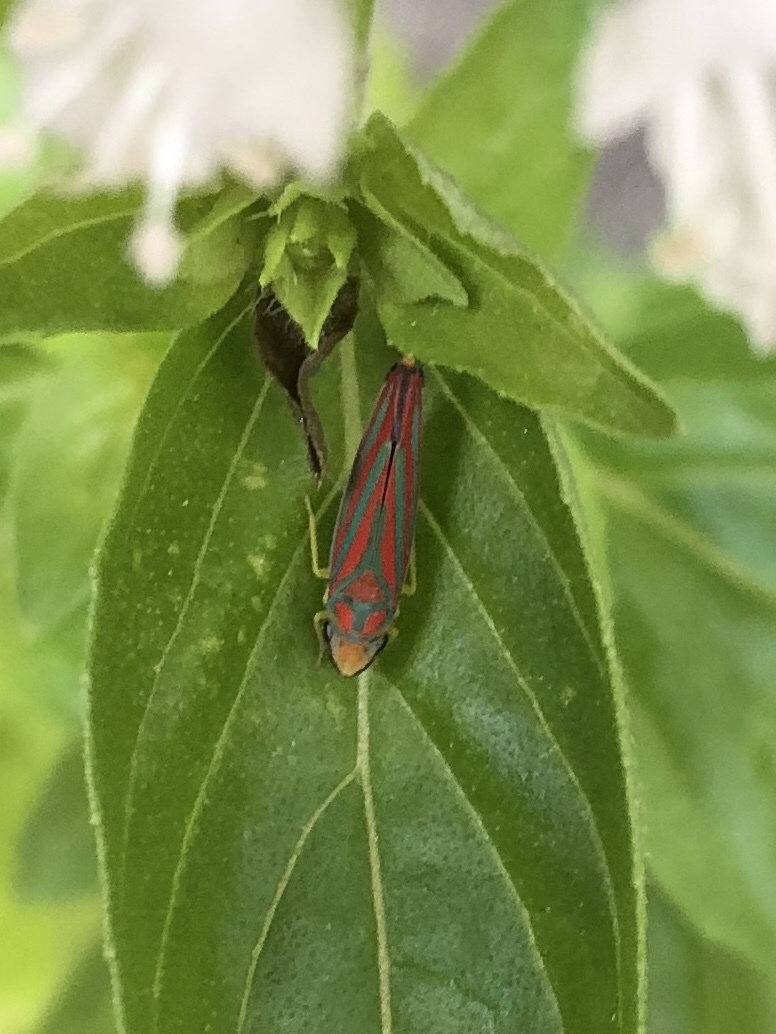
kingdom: Animalia
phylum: Arthropoda
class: Insecta
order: Hemiptera
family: Cicadellidae
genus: Graphocephala
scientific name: Graphocephala coccinea
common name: Candy-striped leafhopper
